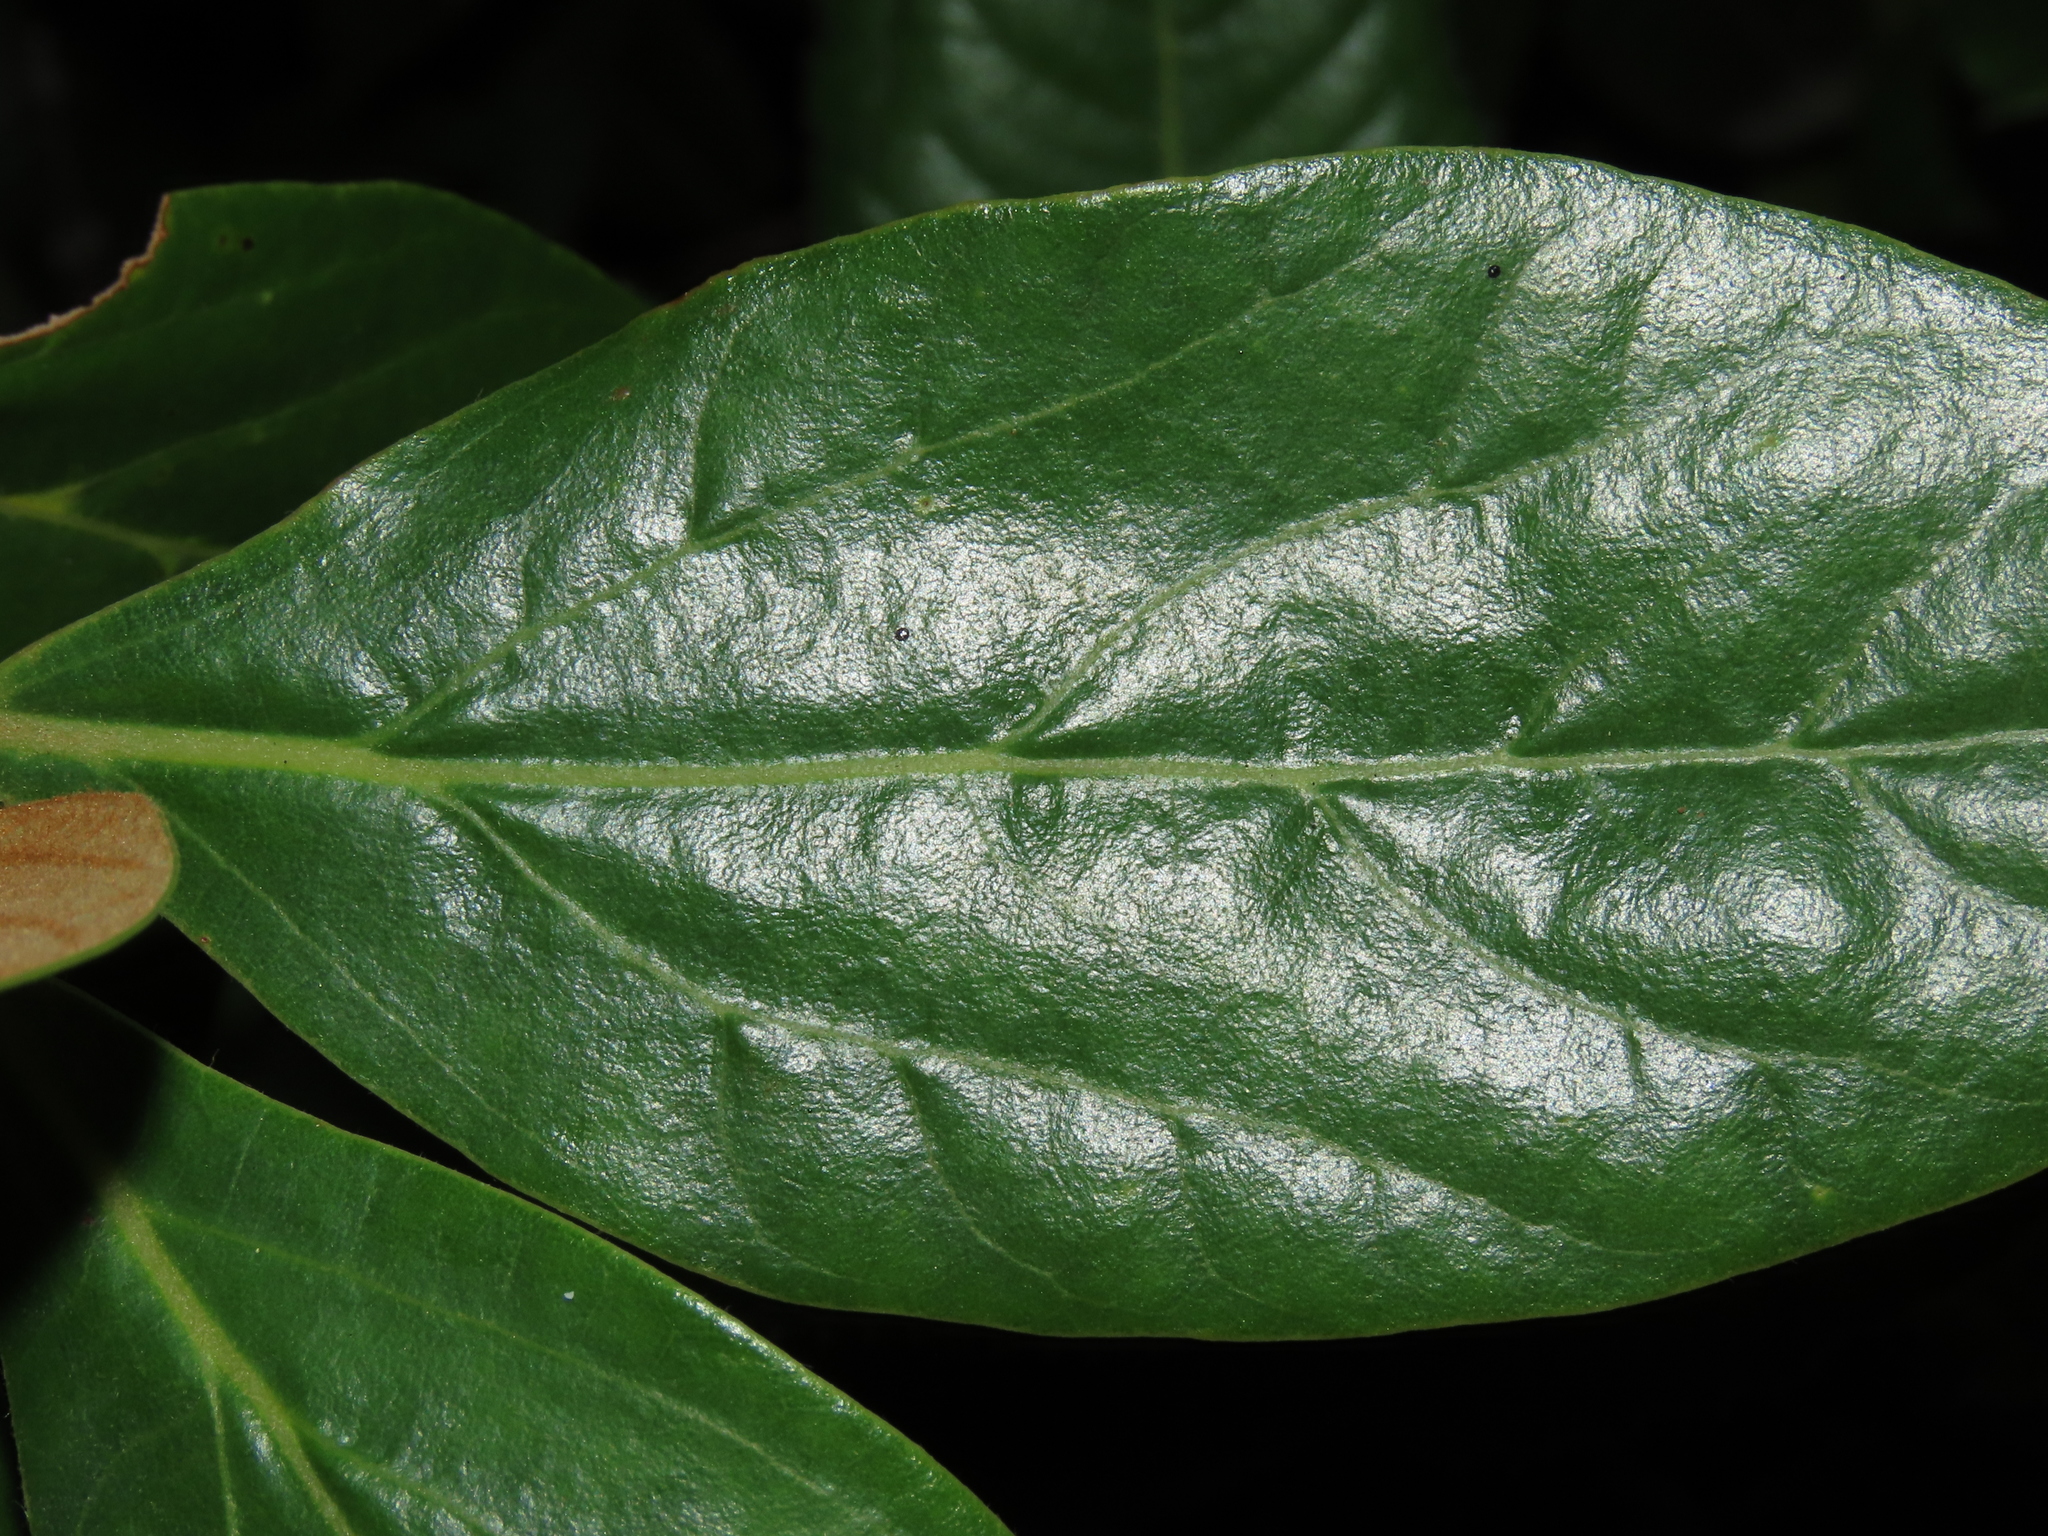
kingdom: Plantae
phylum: Tracheophyta
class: Magnoliopsida
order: Laurales
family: Lauraceae
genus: Persea
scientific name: Persea lingue
